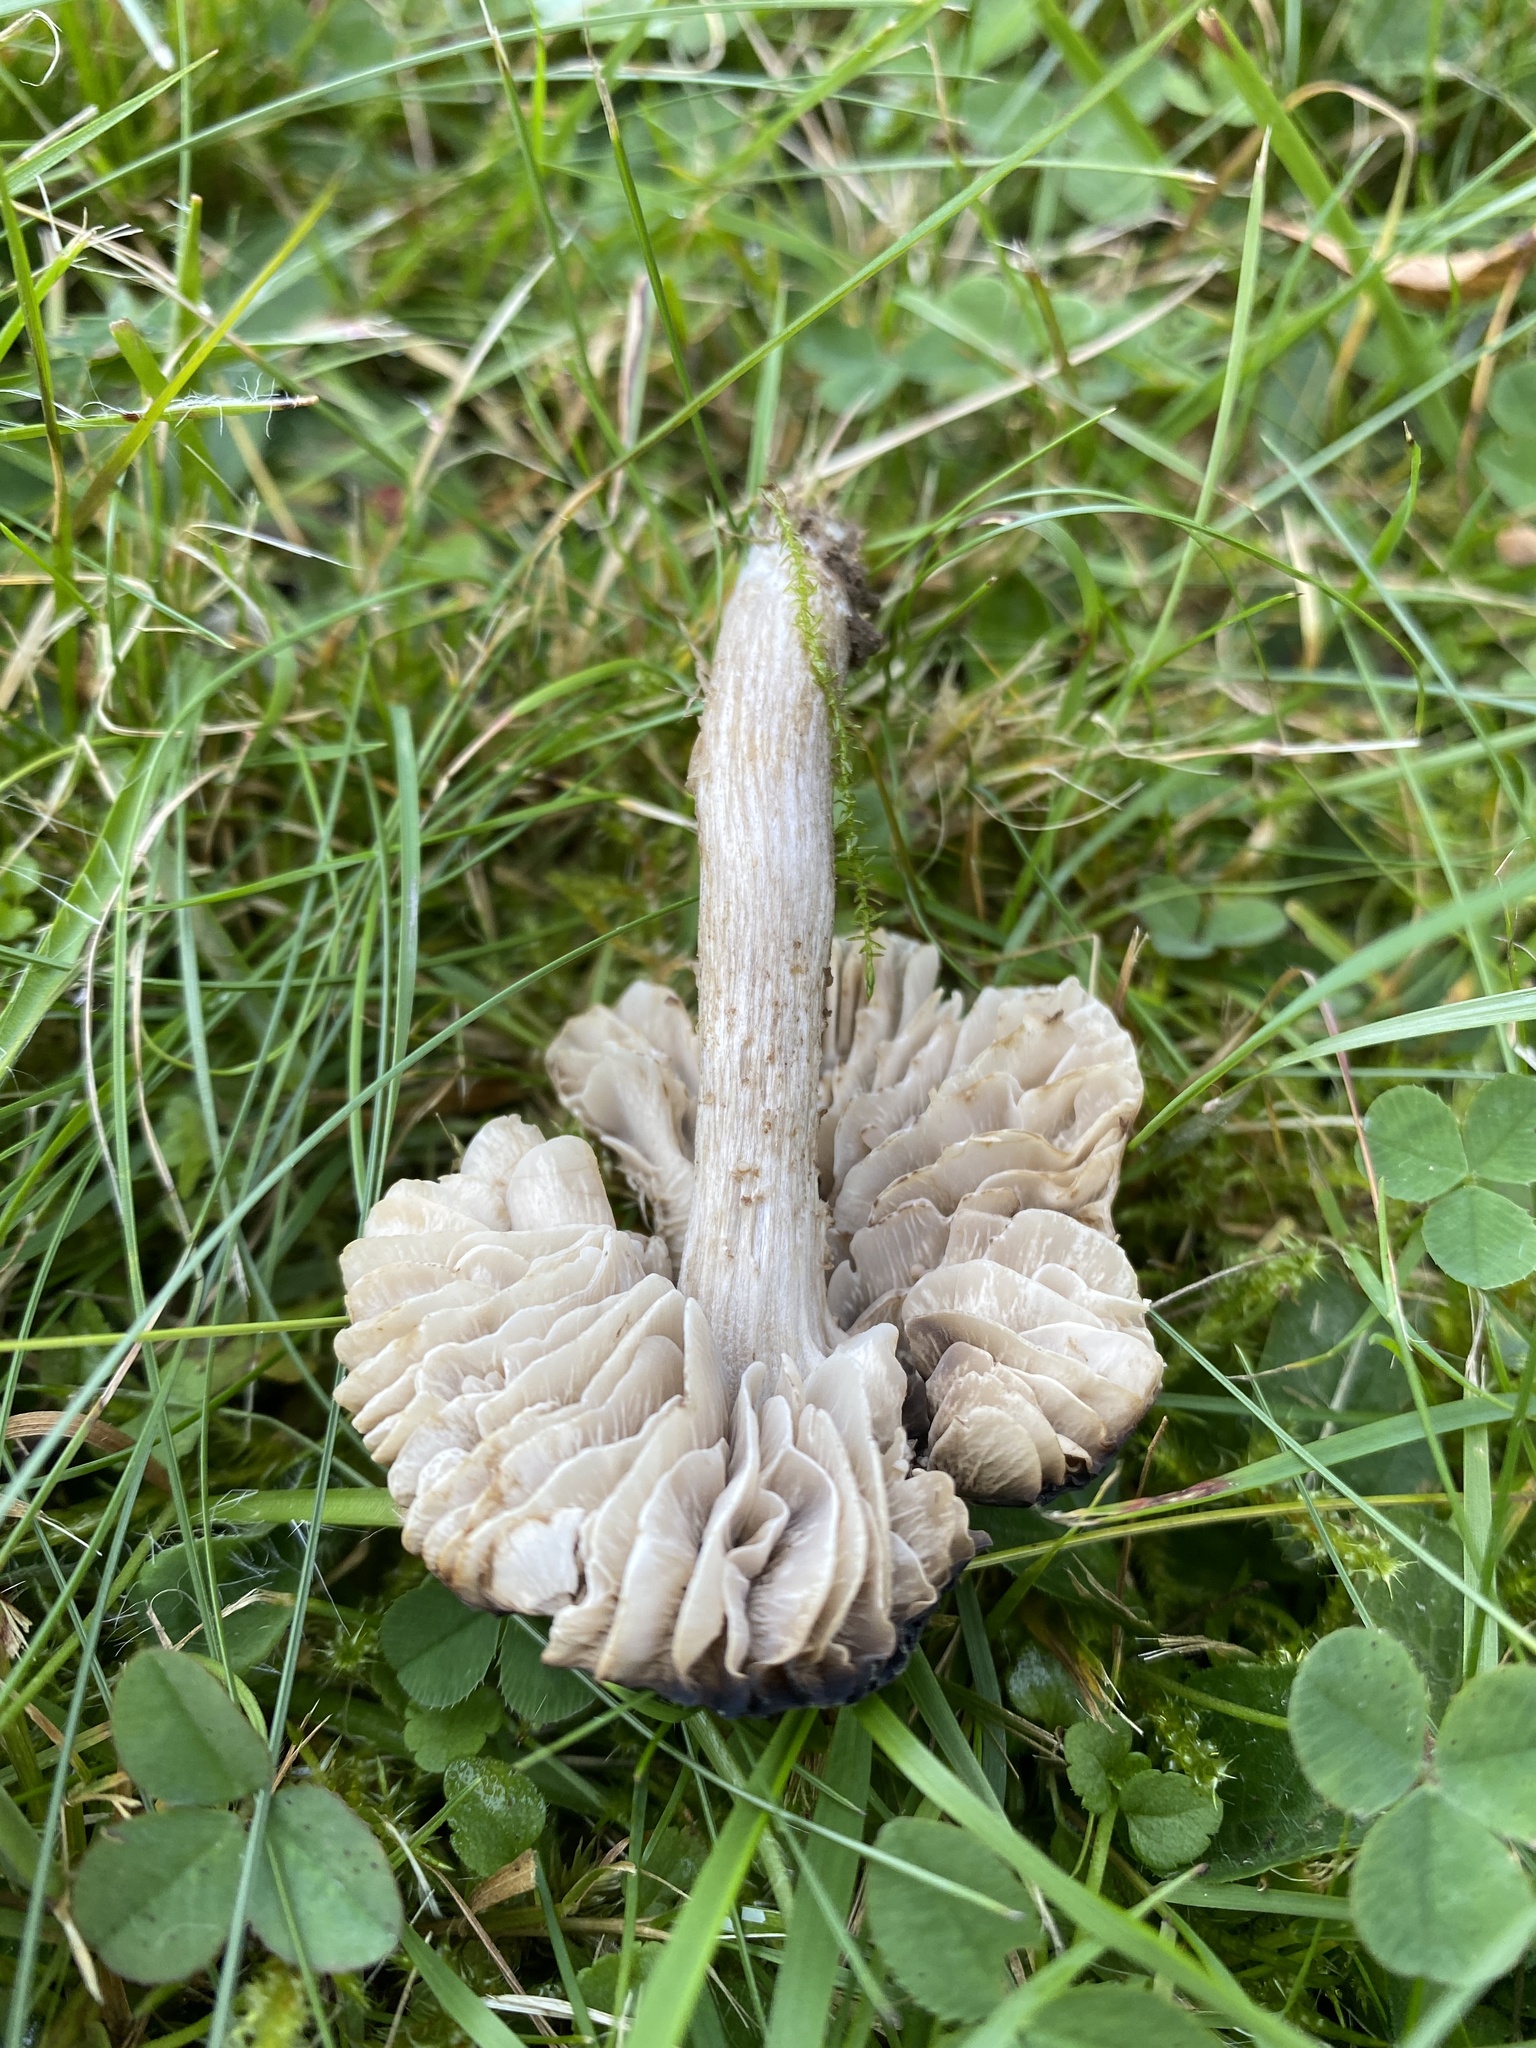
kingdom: Fungi
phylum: Basidiomycota
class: Agaricomycetes
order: Agaricales
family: Tricholomataceae
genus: Dermoloma
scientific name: Dermoloma magicum
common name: Black magic
